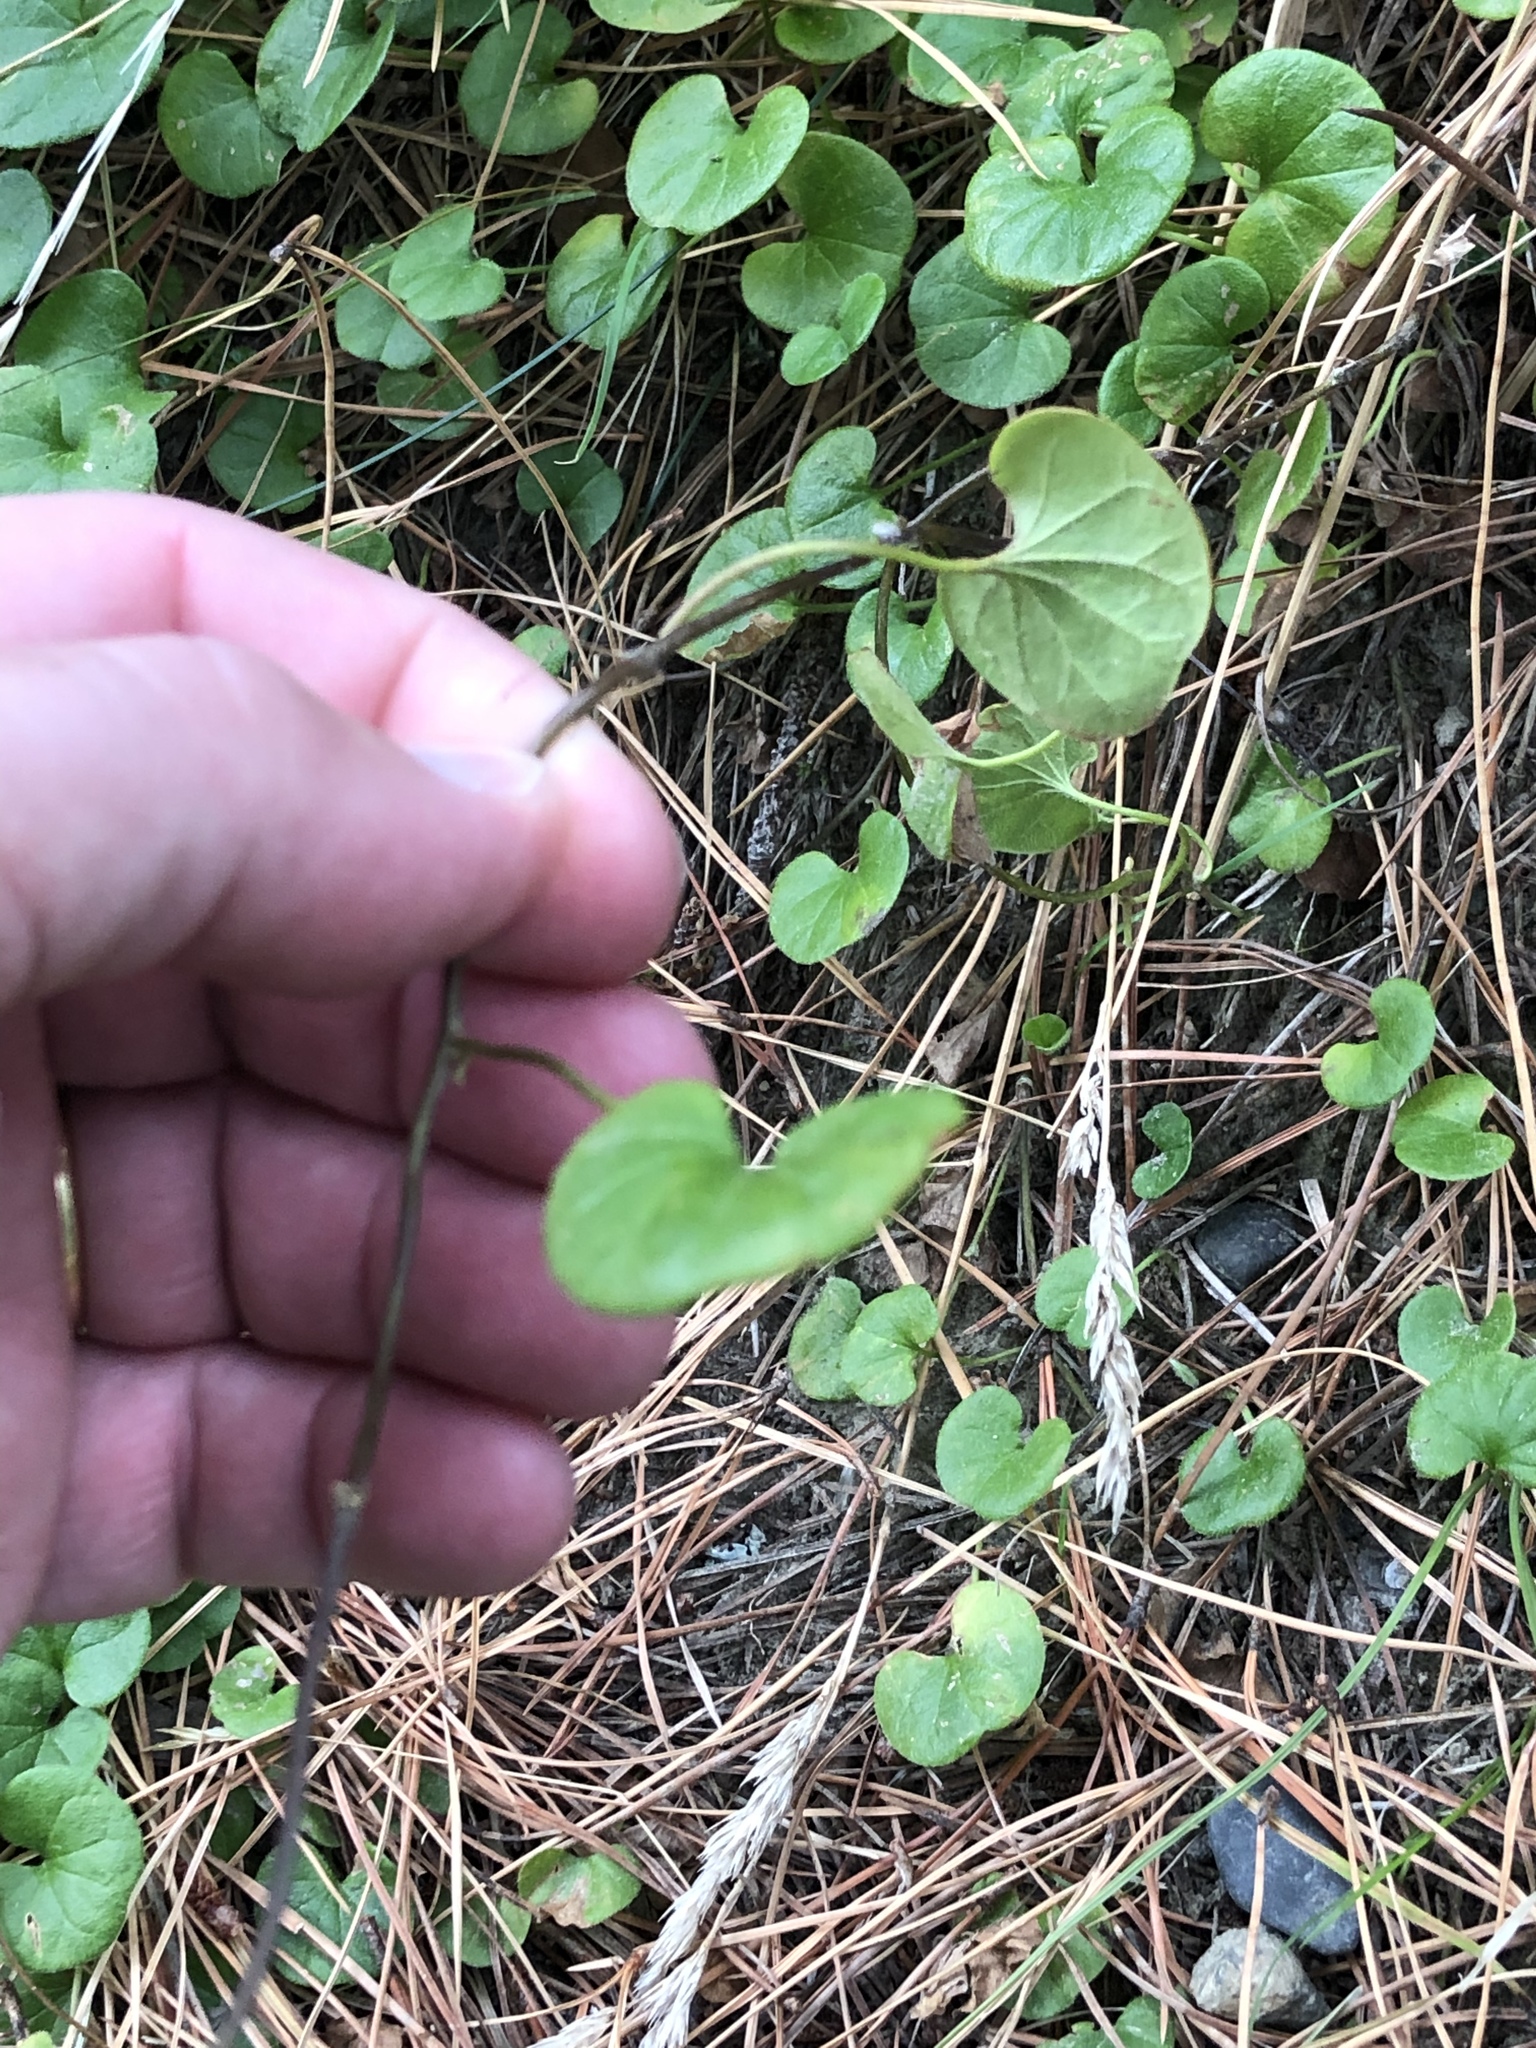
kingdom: Plantae
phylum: Tracheophyta
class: Magnoliopsida
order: Solanales
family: Convolvulaceae
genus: Dichondra
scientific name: Dichondra repens
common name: Kidneyweed
